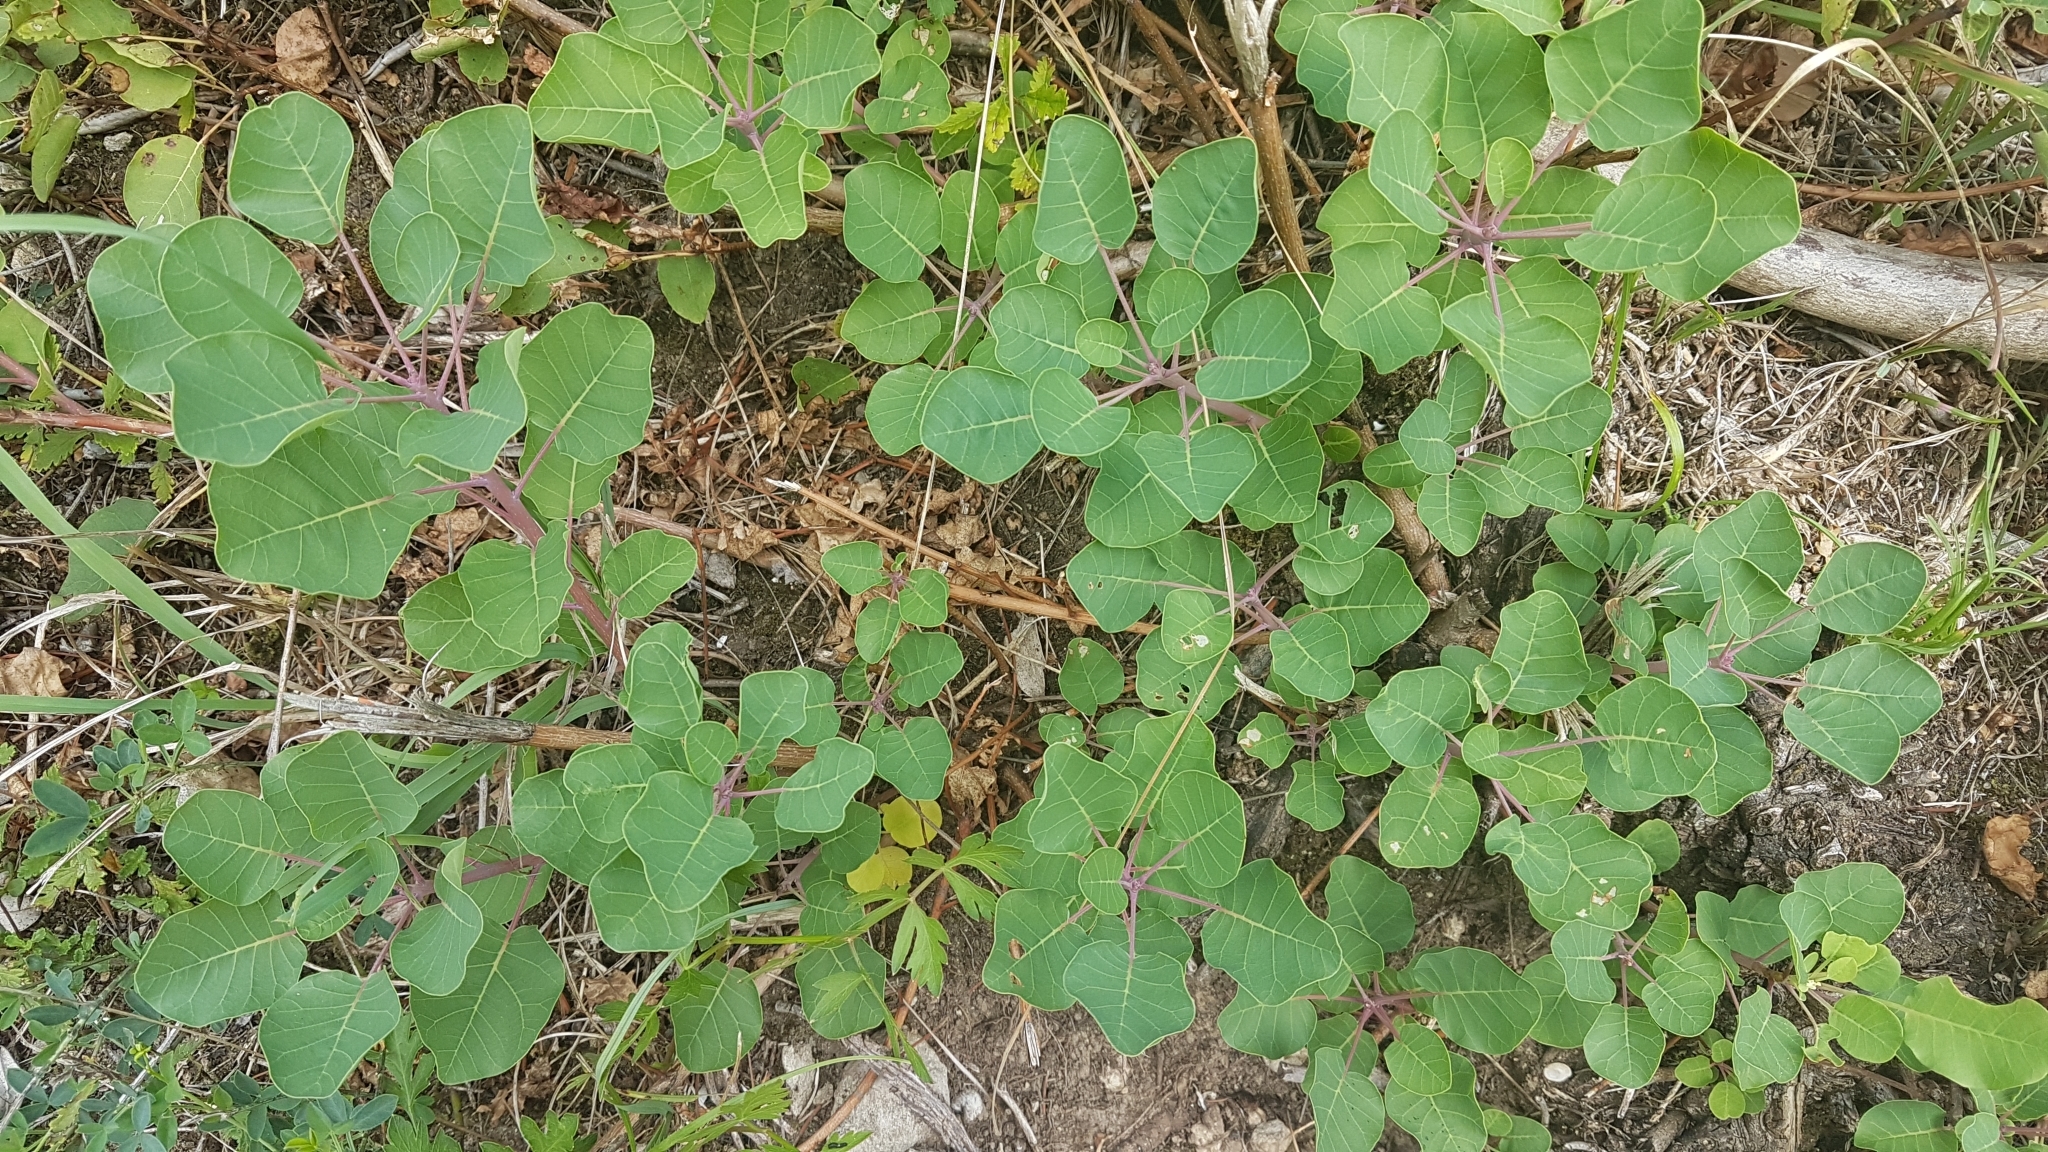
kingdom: Plantae
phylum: Tracheophyta
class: Magnoliopsida
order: Sapindales
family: Anacardiaceae
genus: Cotinus
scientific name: Cotinus coggygria
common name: Smoke-tree
